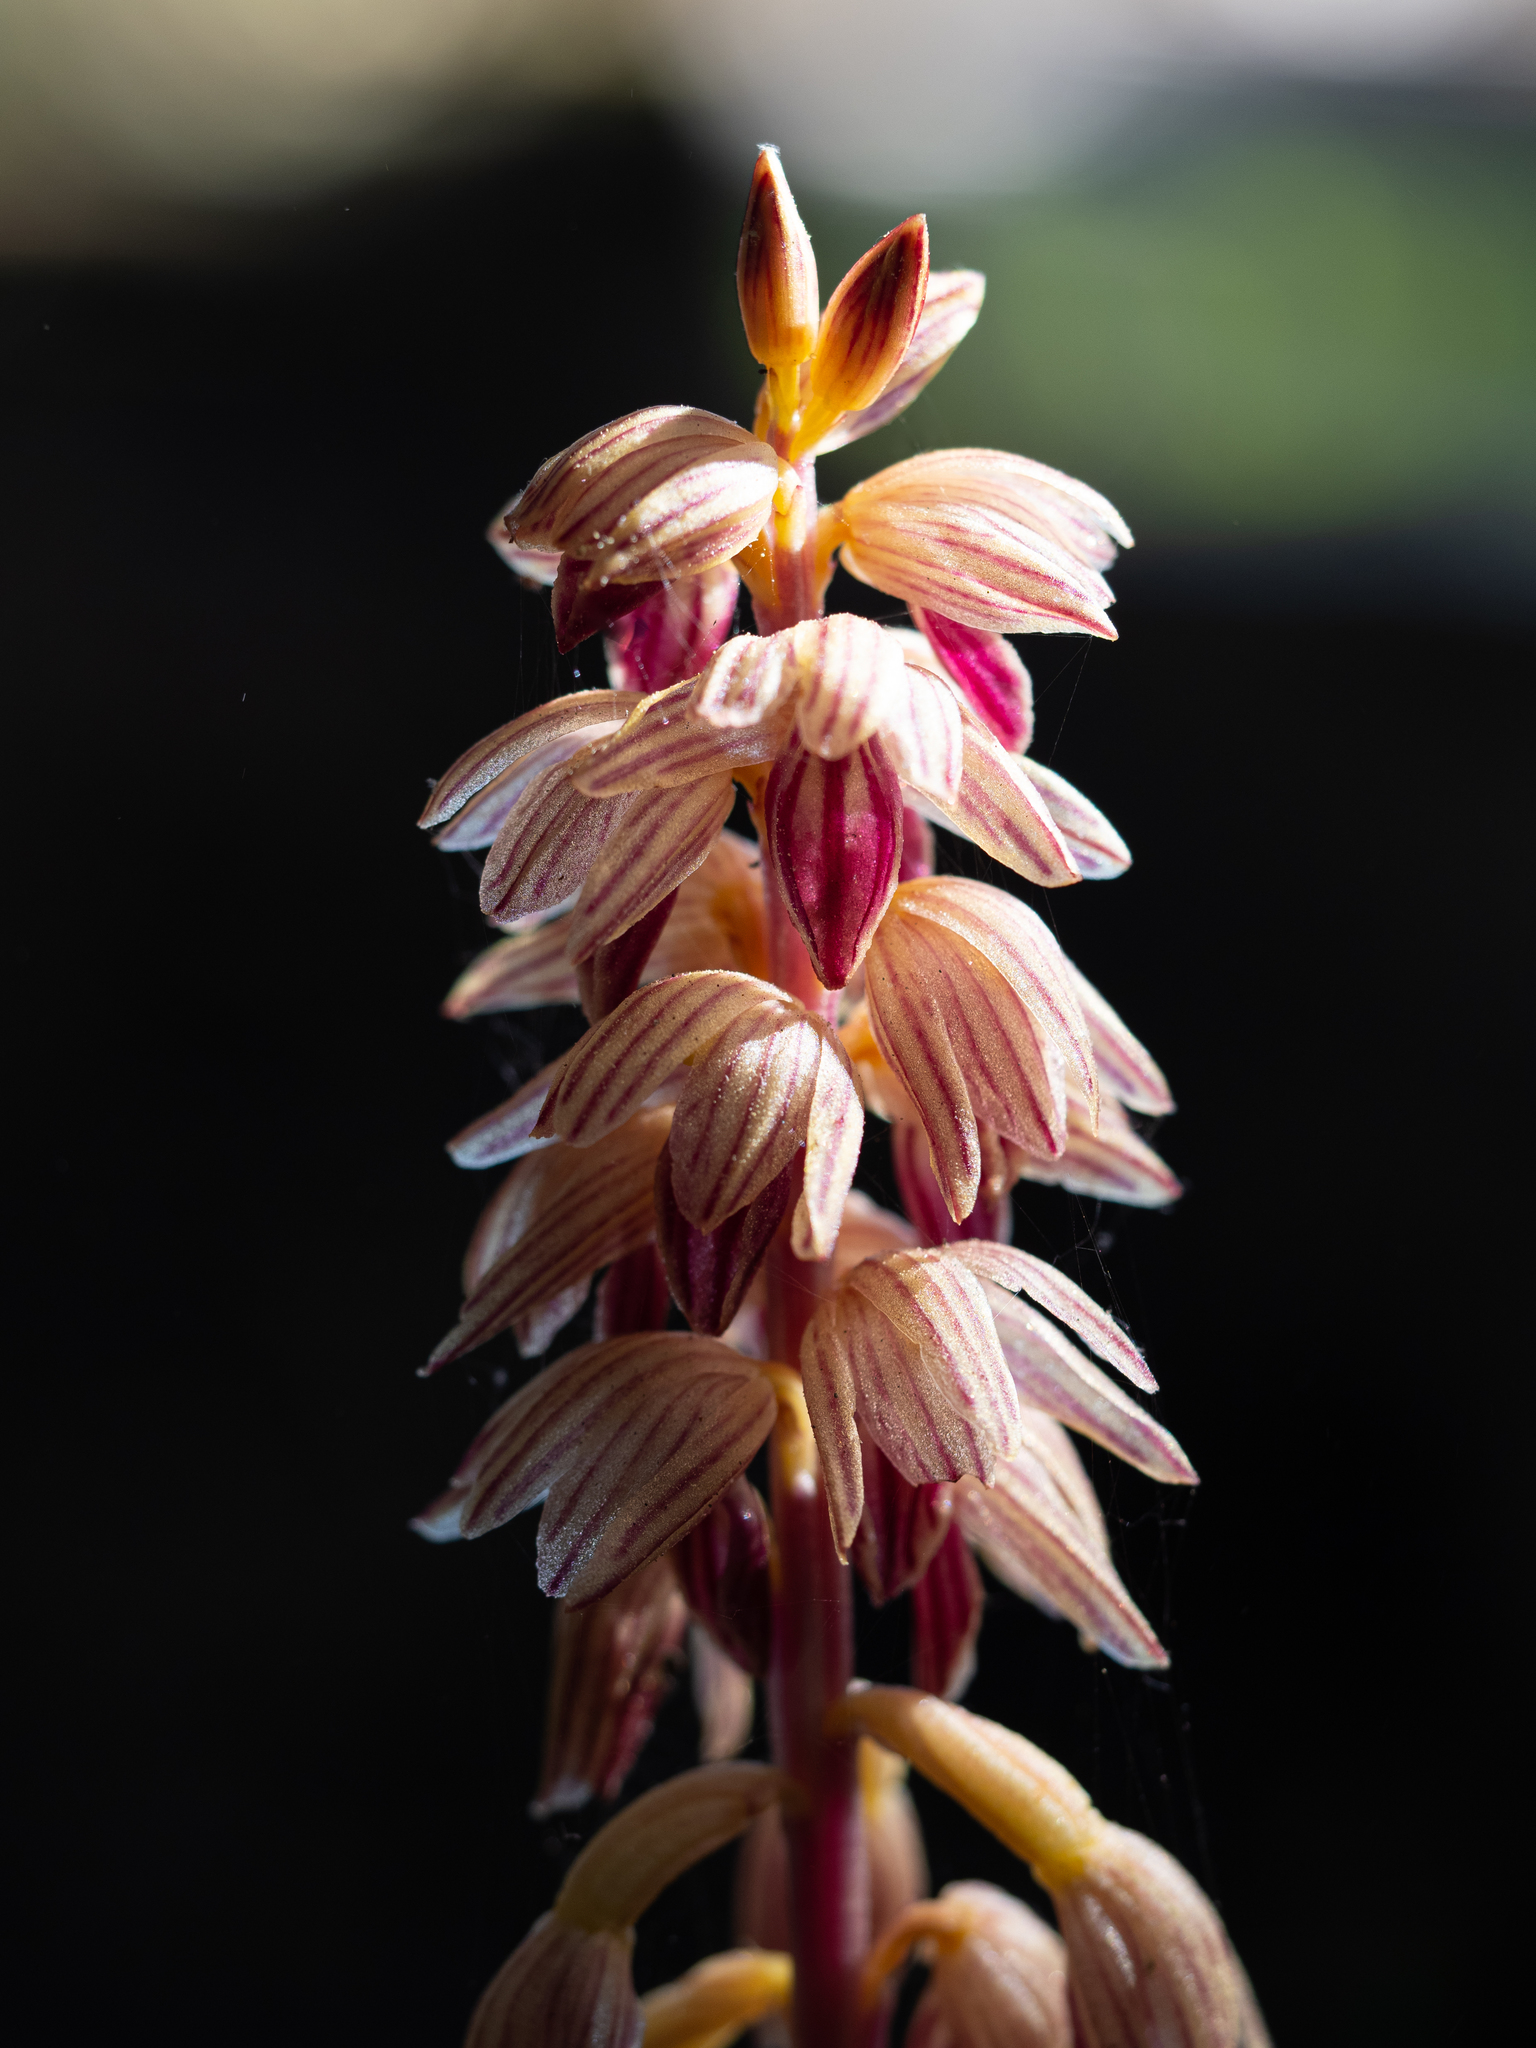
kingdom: Plantae
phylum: Tracheophyta
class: Liliopsida
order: Asparagales
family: Orchidaceae
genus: Corallorhiza
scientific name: Corallorhiza striata
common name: Hooded coralroot
